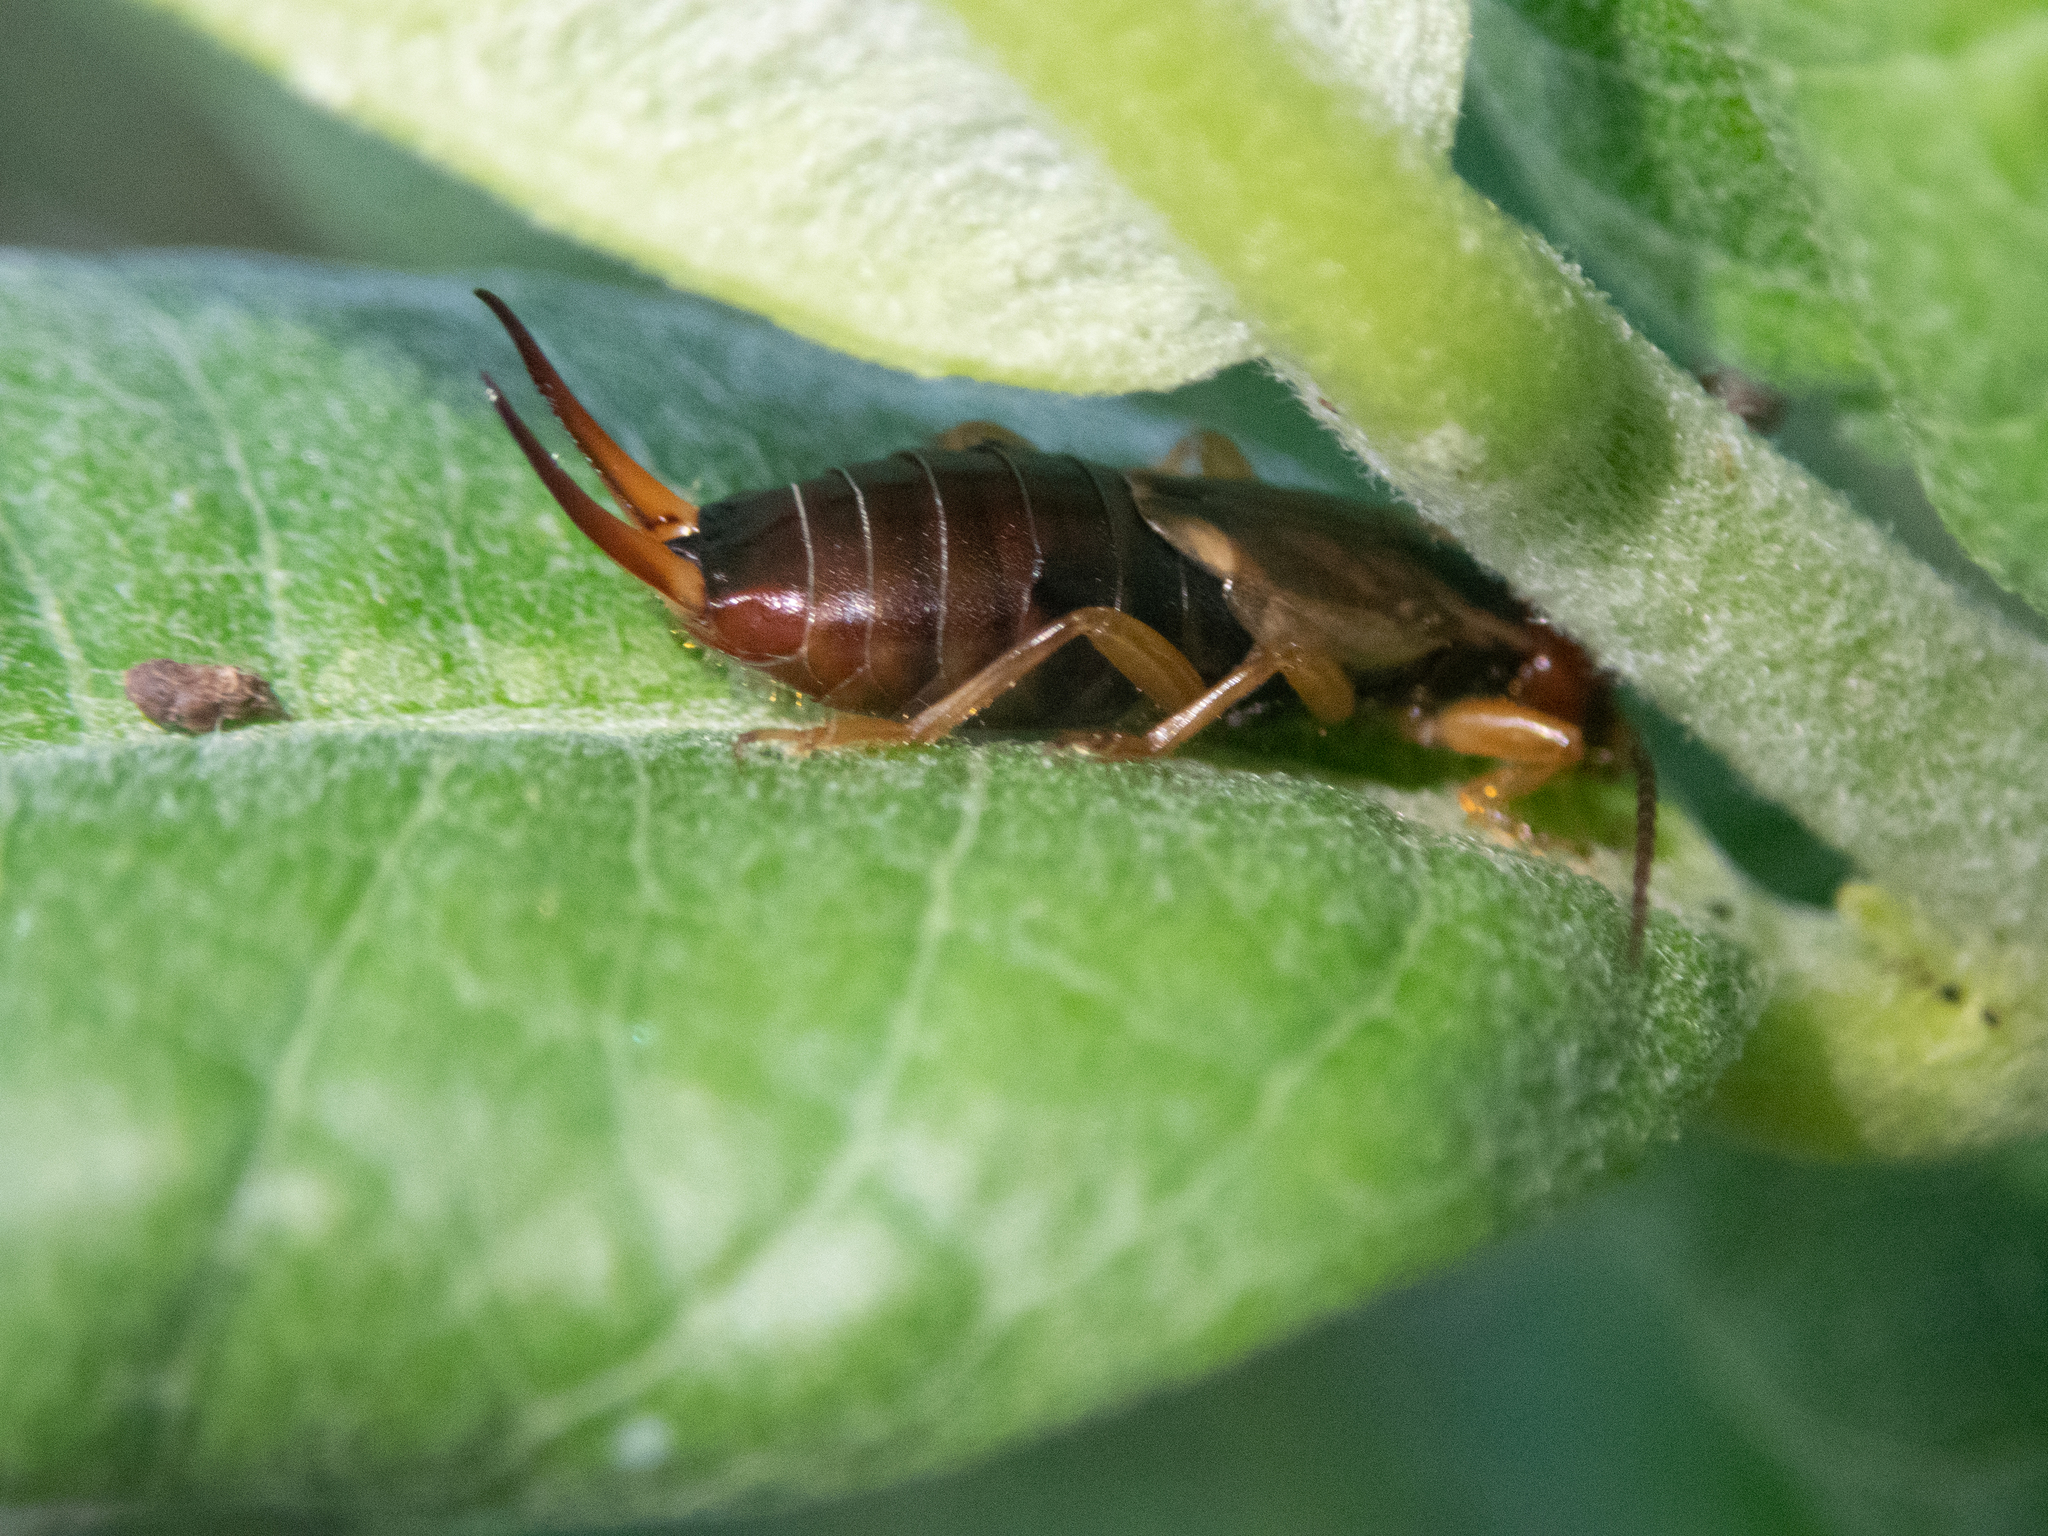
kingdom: Animalia
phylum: Arthropoda
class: Insecta
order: Dermaptera
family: Forficulidae
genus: Forficula
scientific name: Forficula
